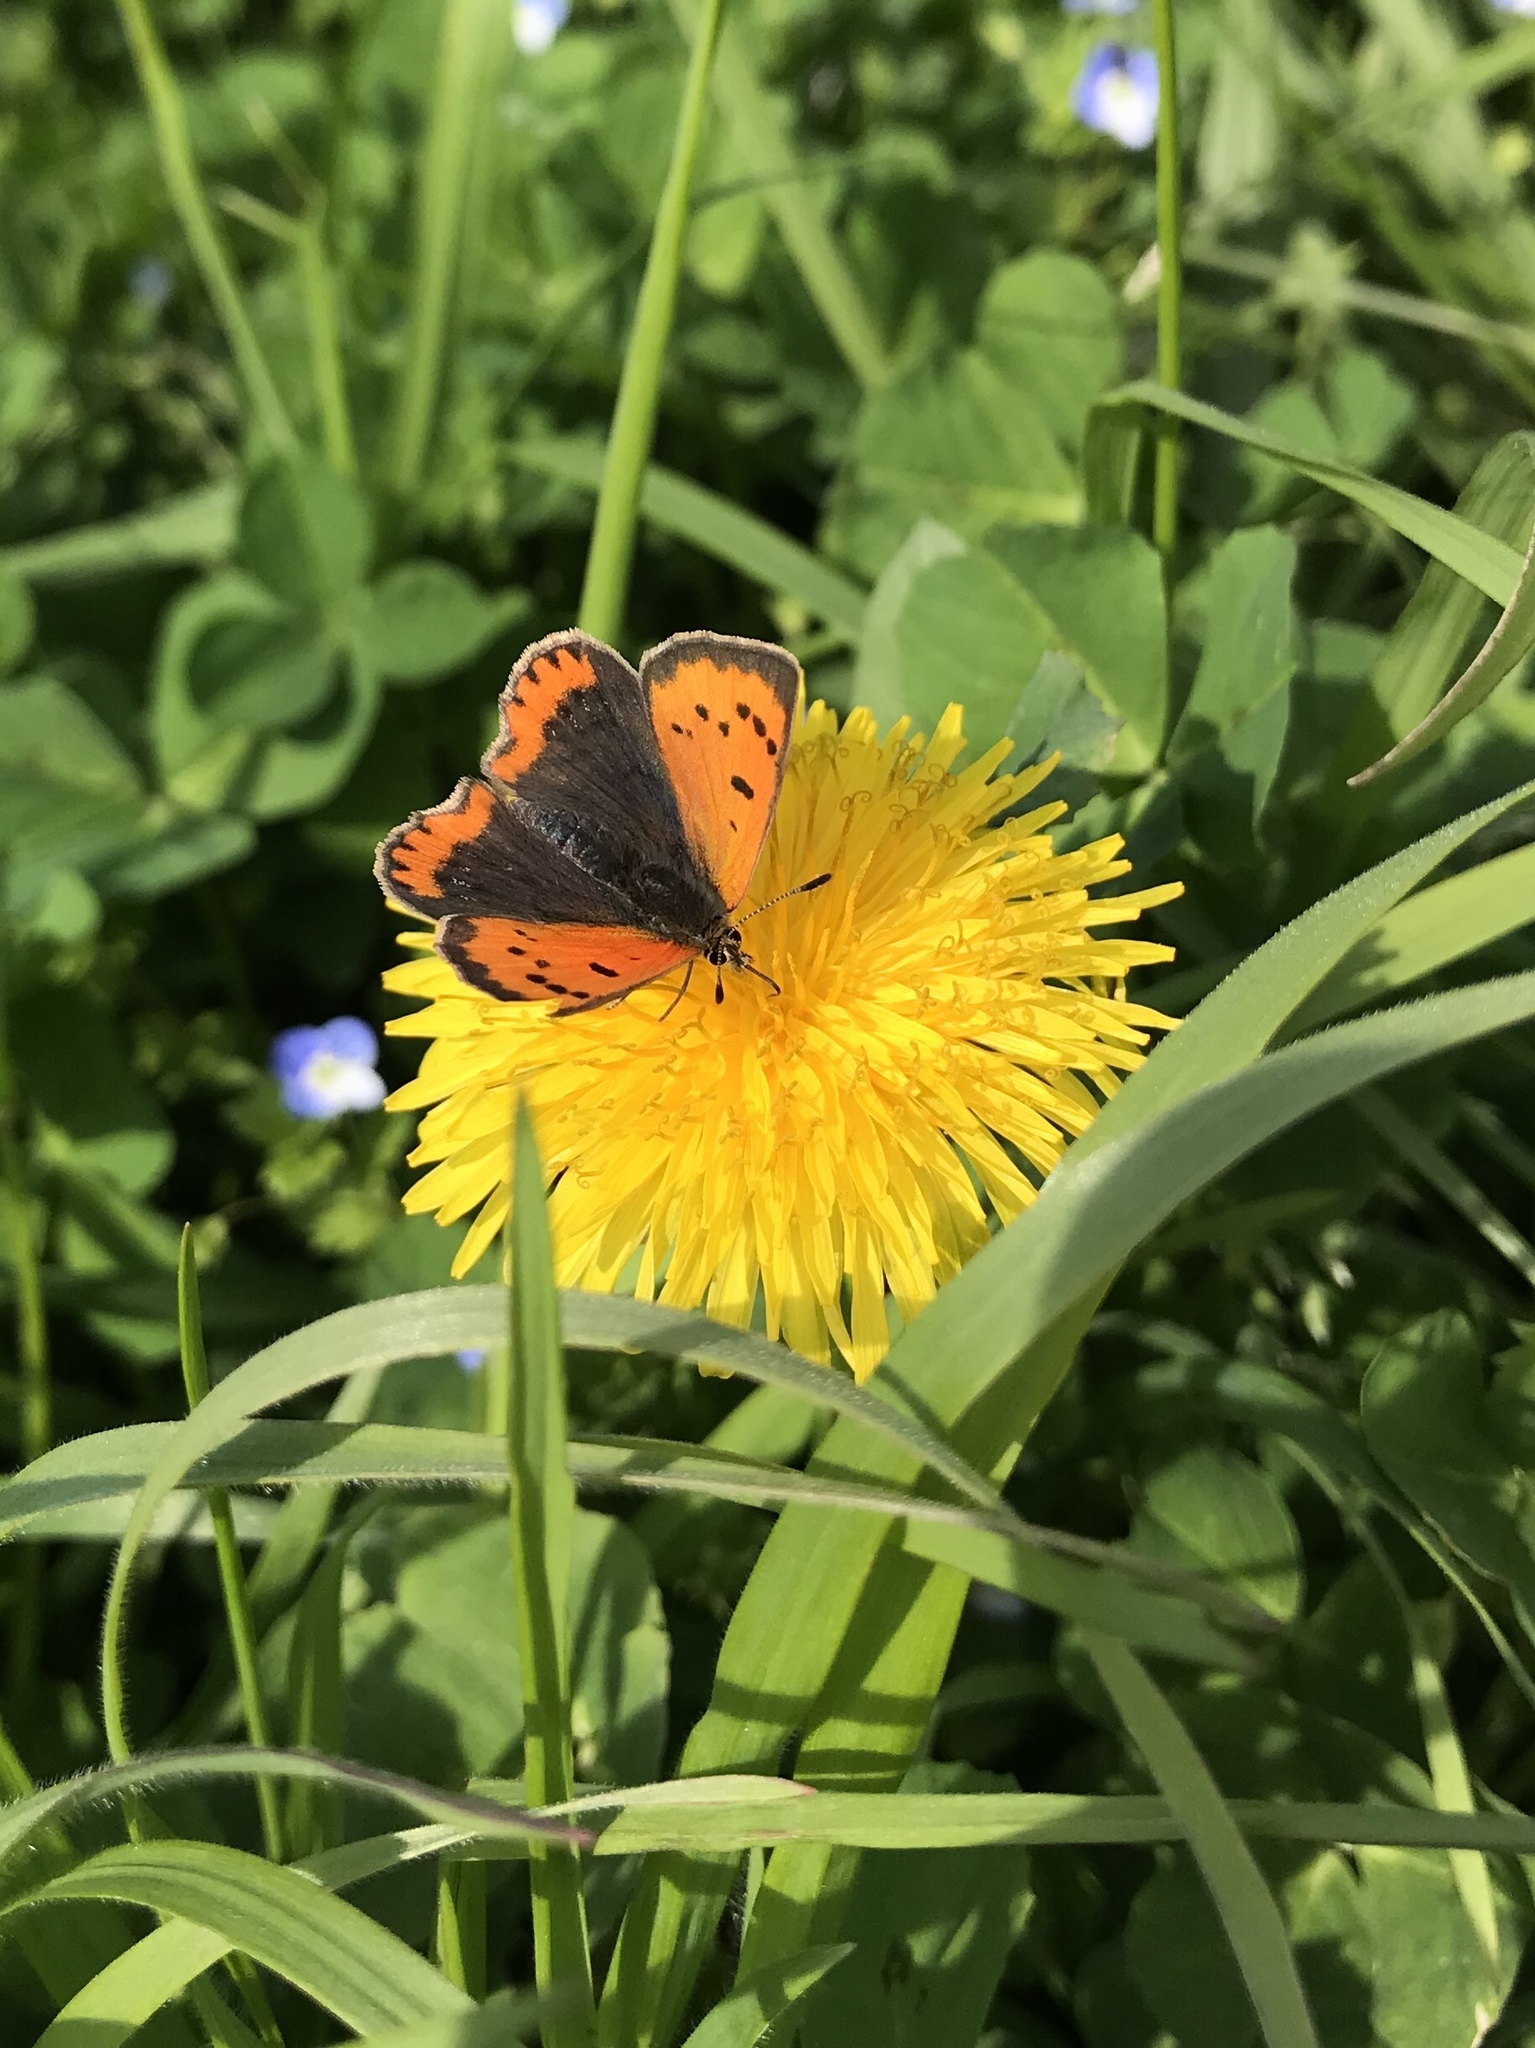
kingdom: Animalia
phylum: Arthropoda
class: Insecta
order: Lepidoptera
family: Lycaenidae
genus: Lycaena
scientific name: Lycaena phlaeas
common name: Small copper
